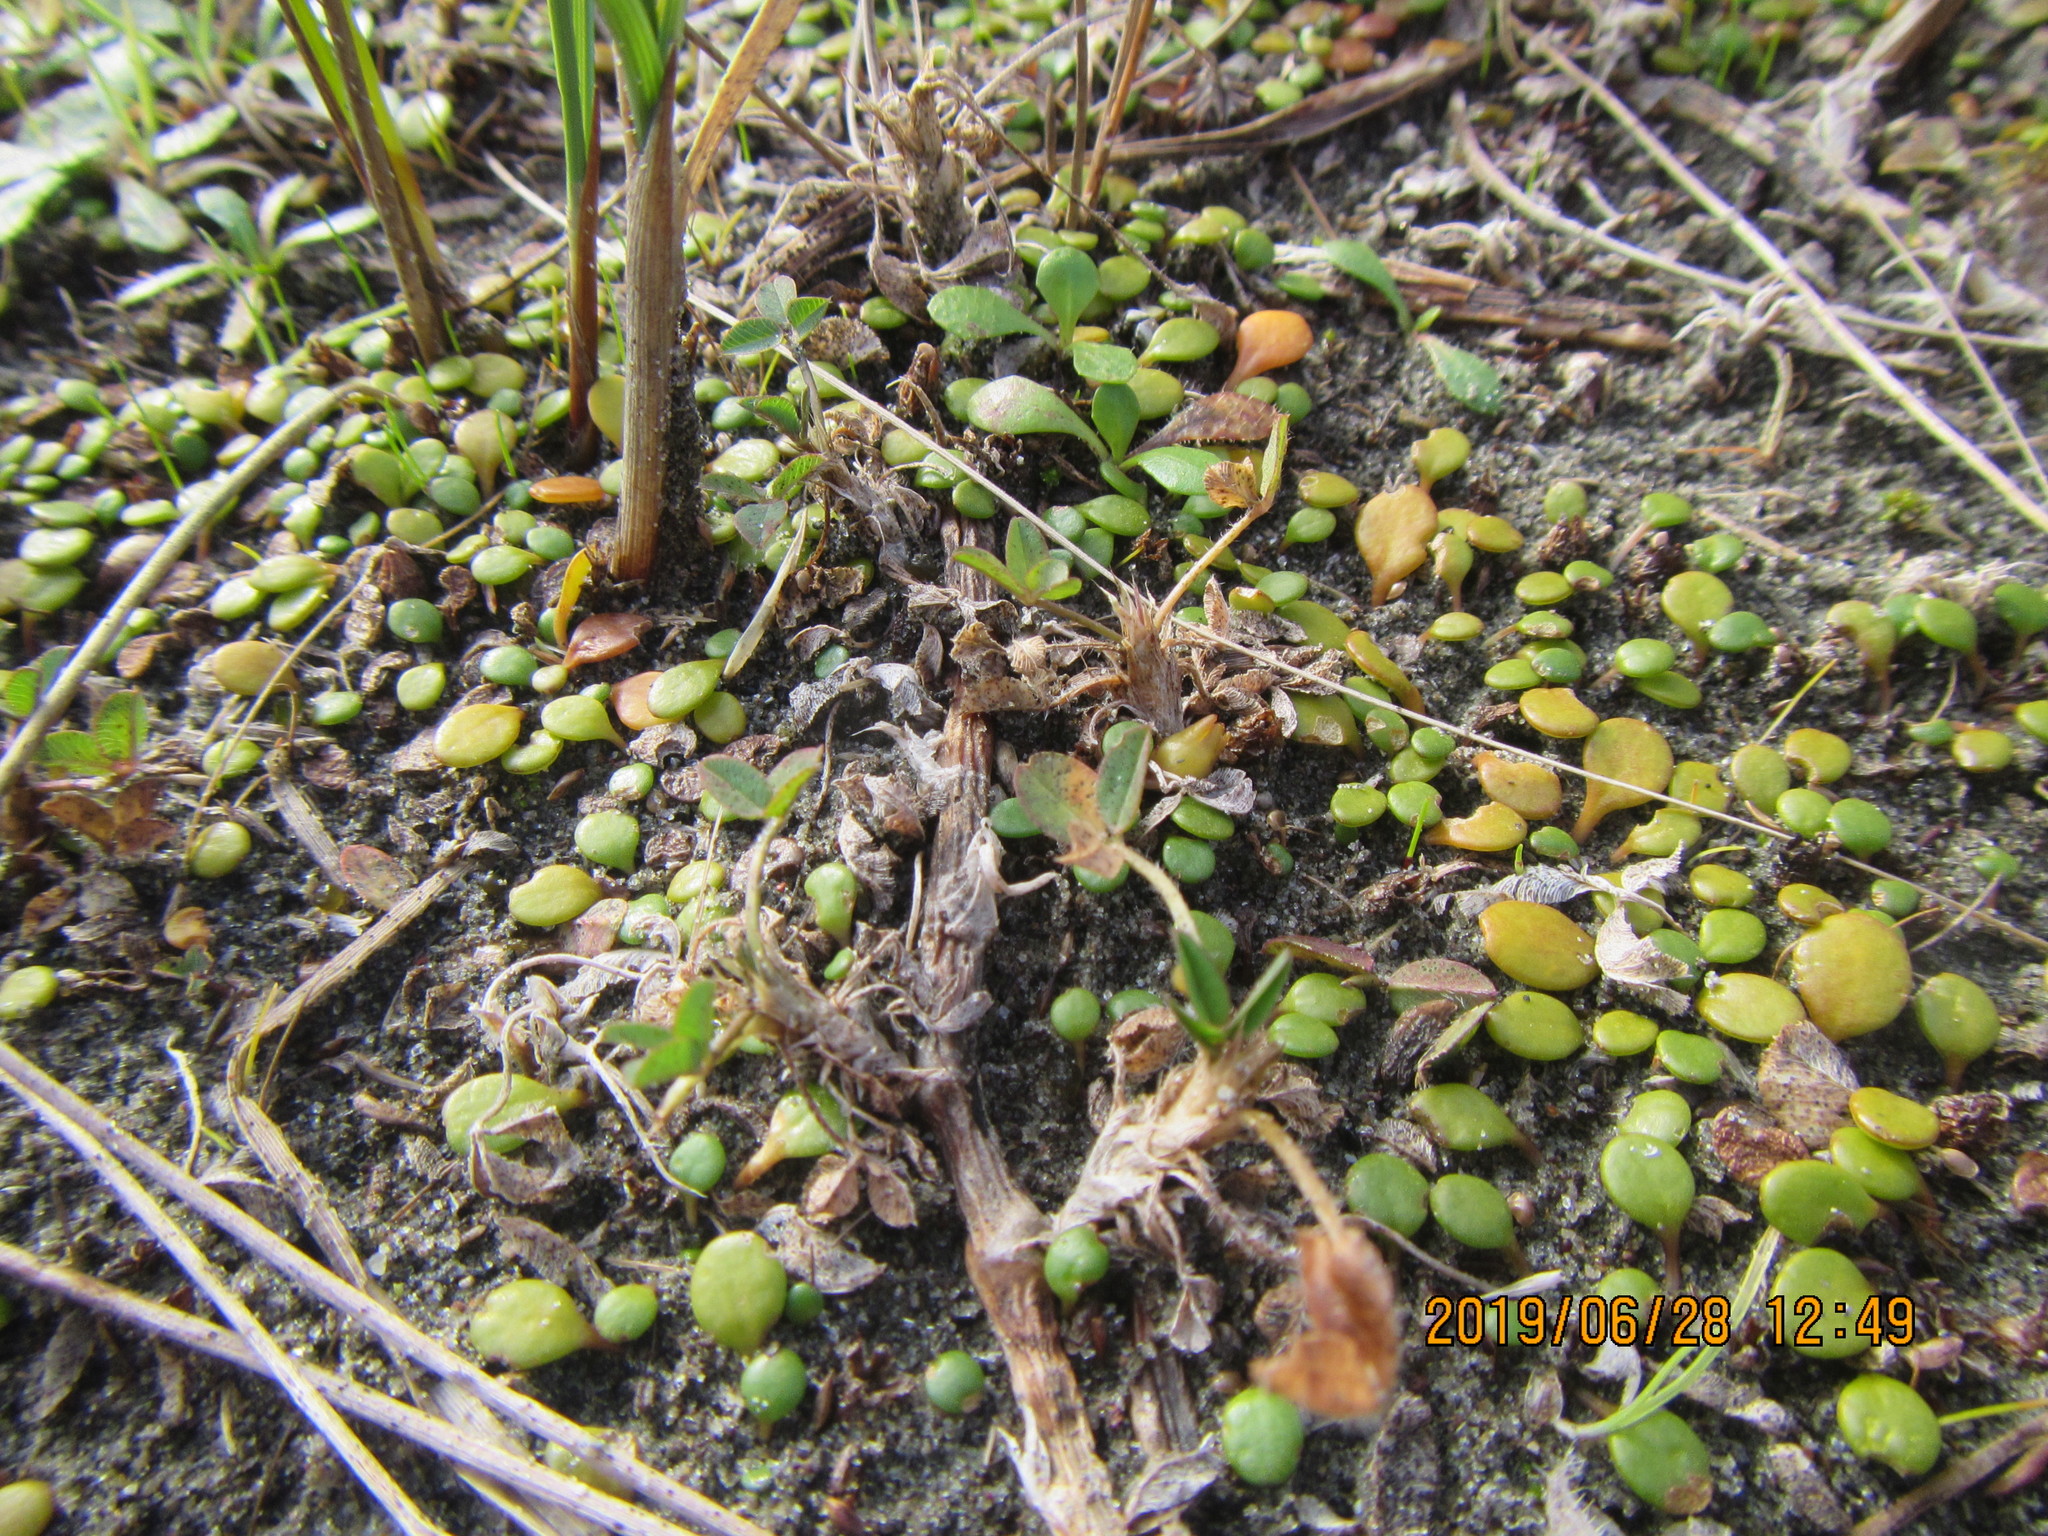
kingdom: Plantae
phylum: Tracheophyta
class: Magnoliopsida
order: Asterales
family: Goodeniaceae
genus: Goodenia
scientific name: Goodenia heenanii
